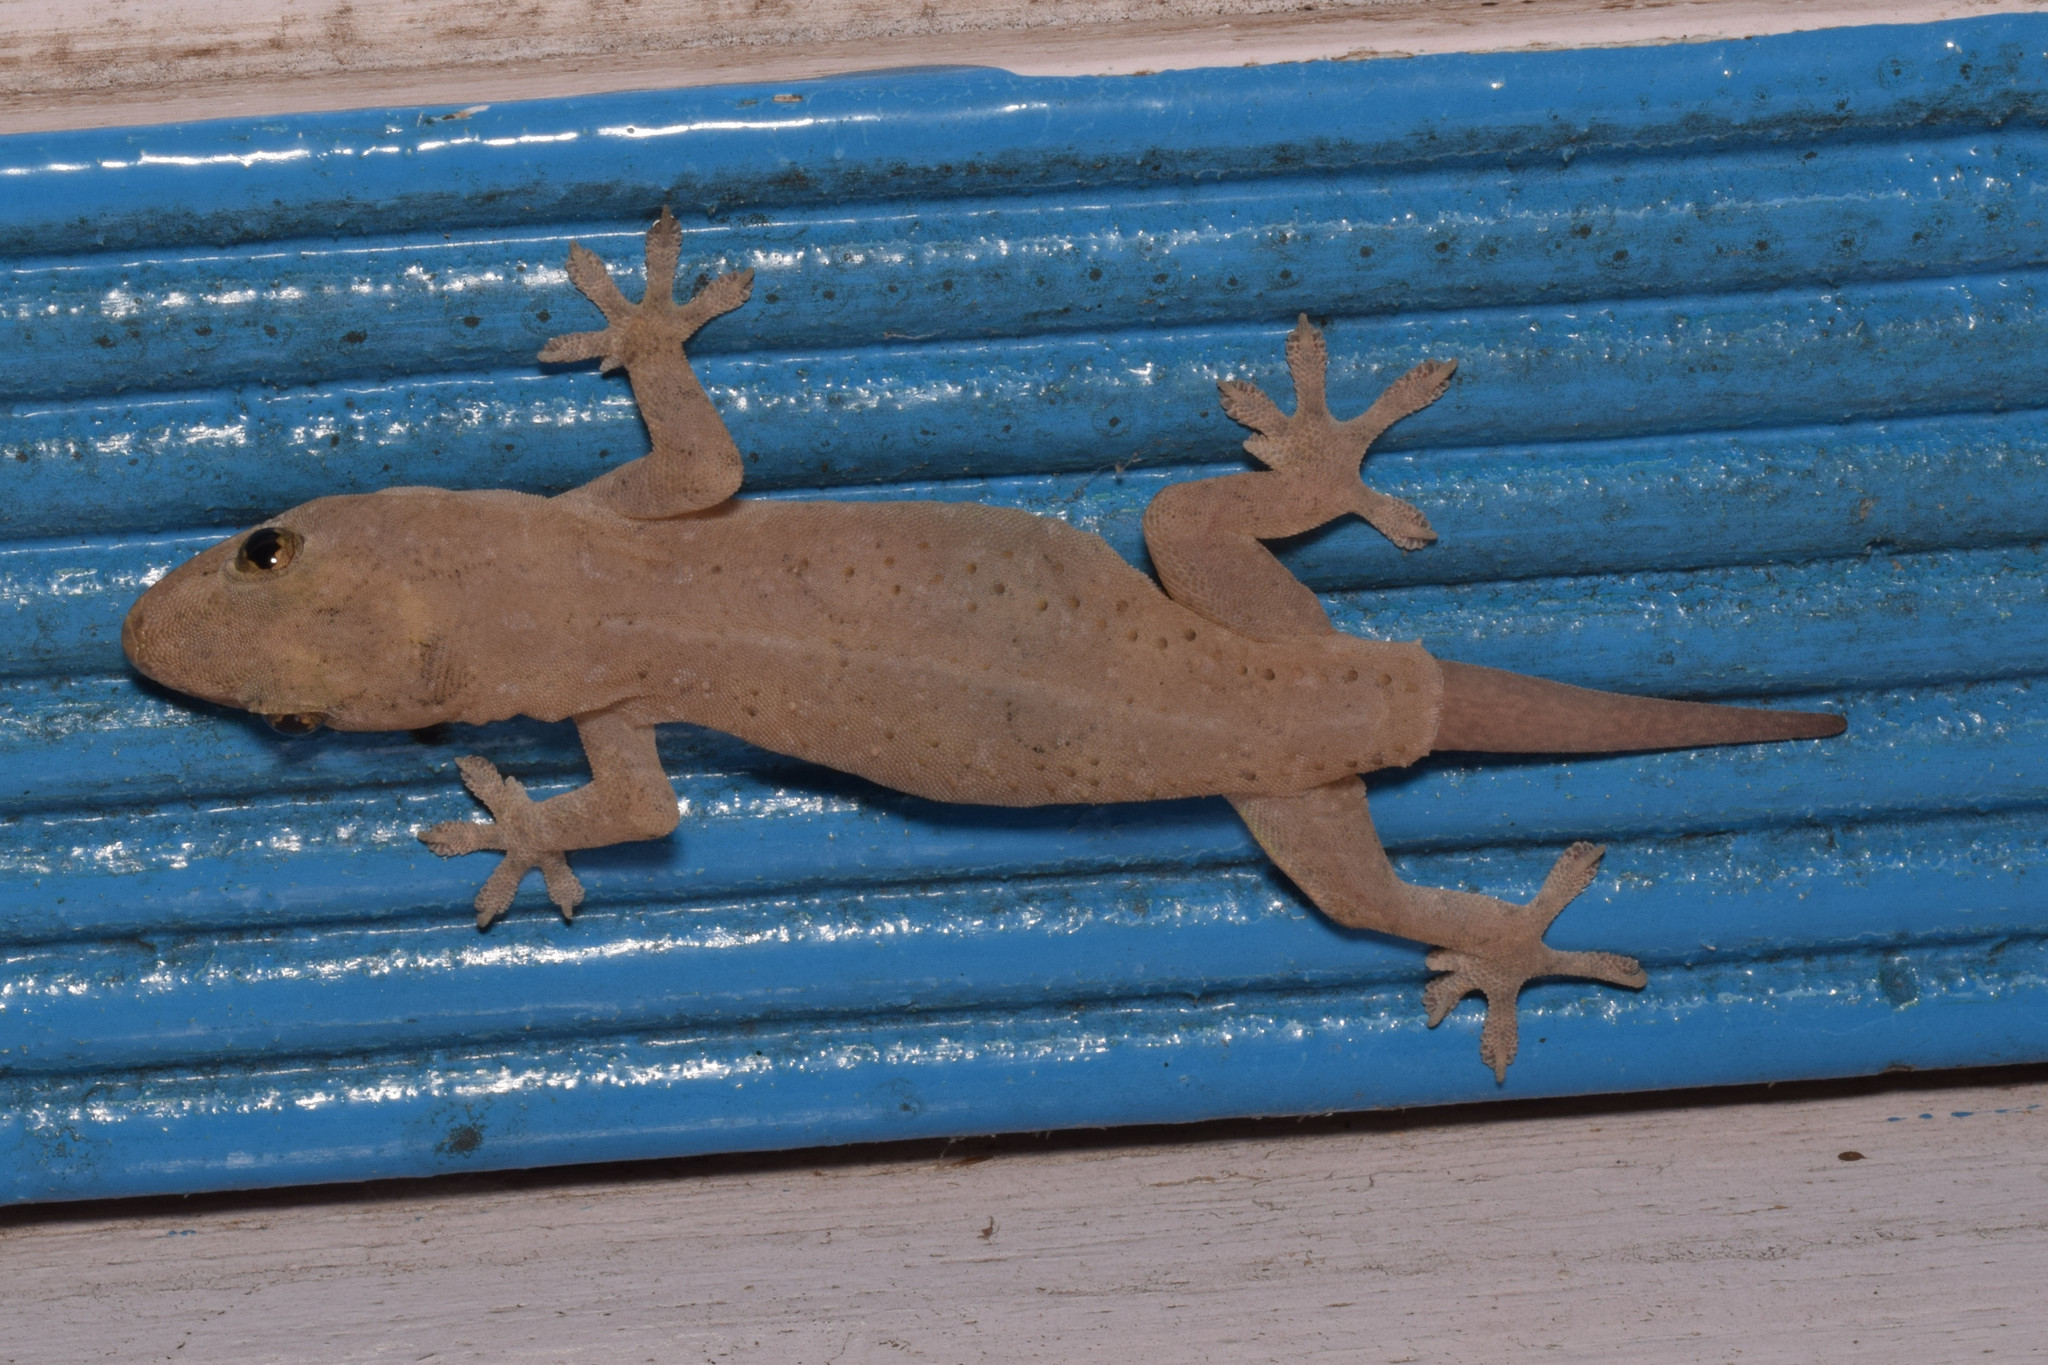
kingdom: Animalia
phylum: Chordata
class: Squamata
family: Gekkonidae
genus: Hemidactylus
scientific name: Hemidactylus frenatus
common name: Common house gecko
